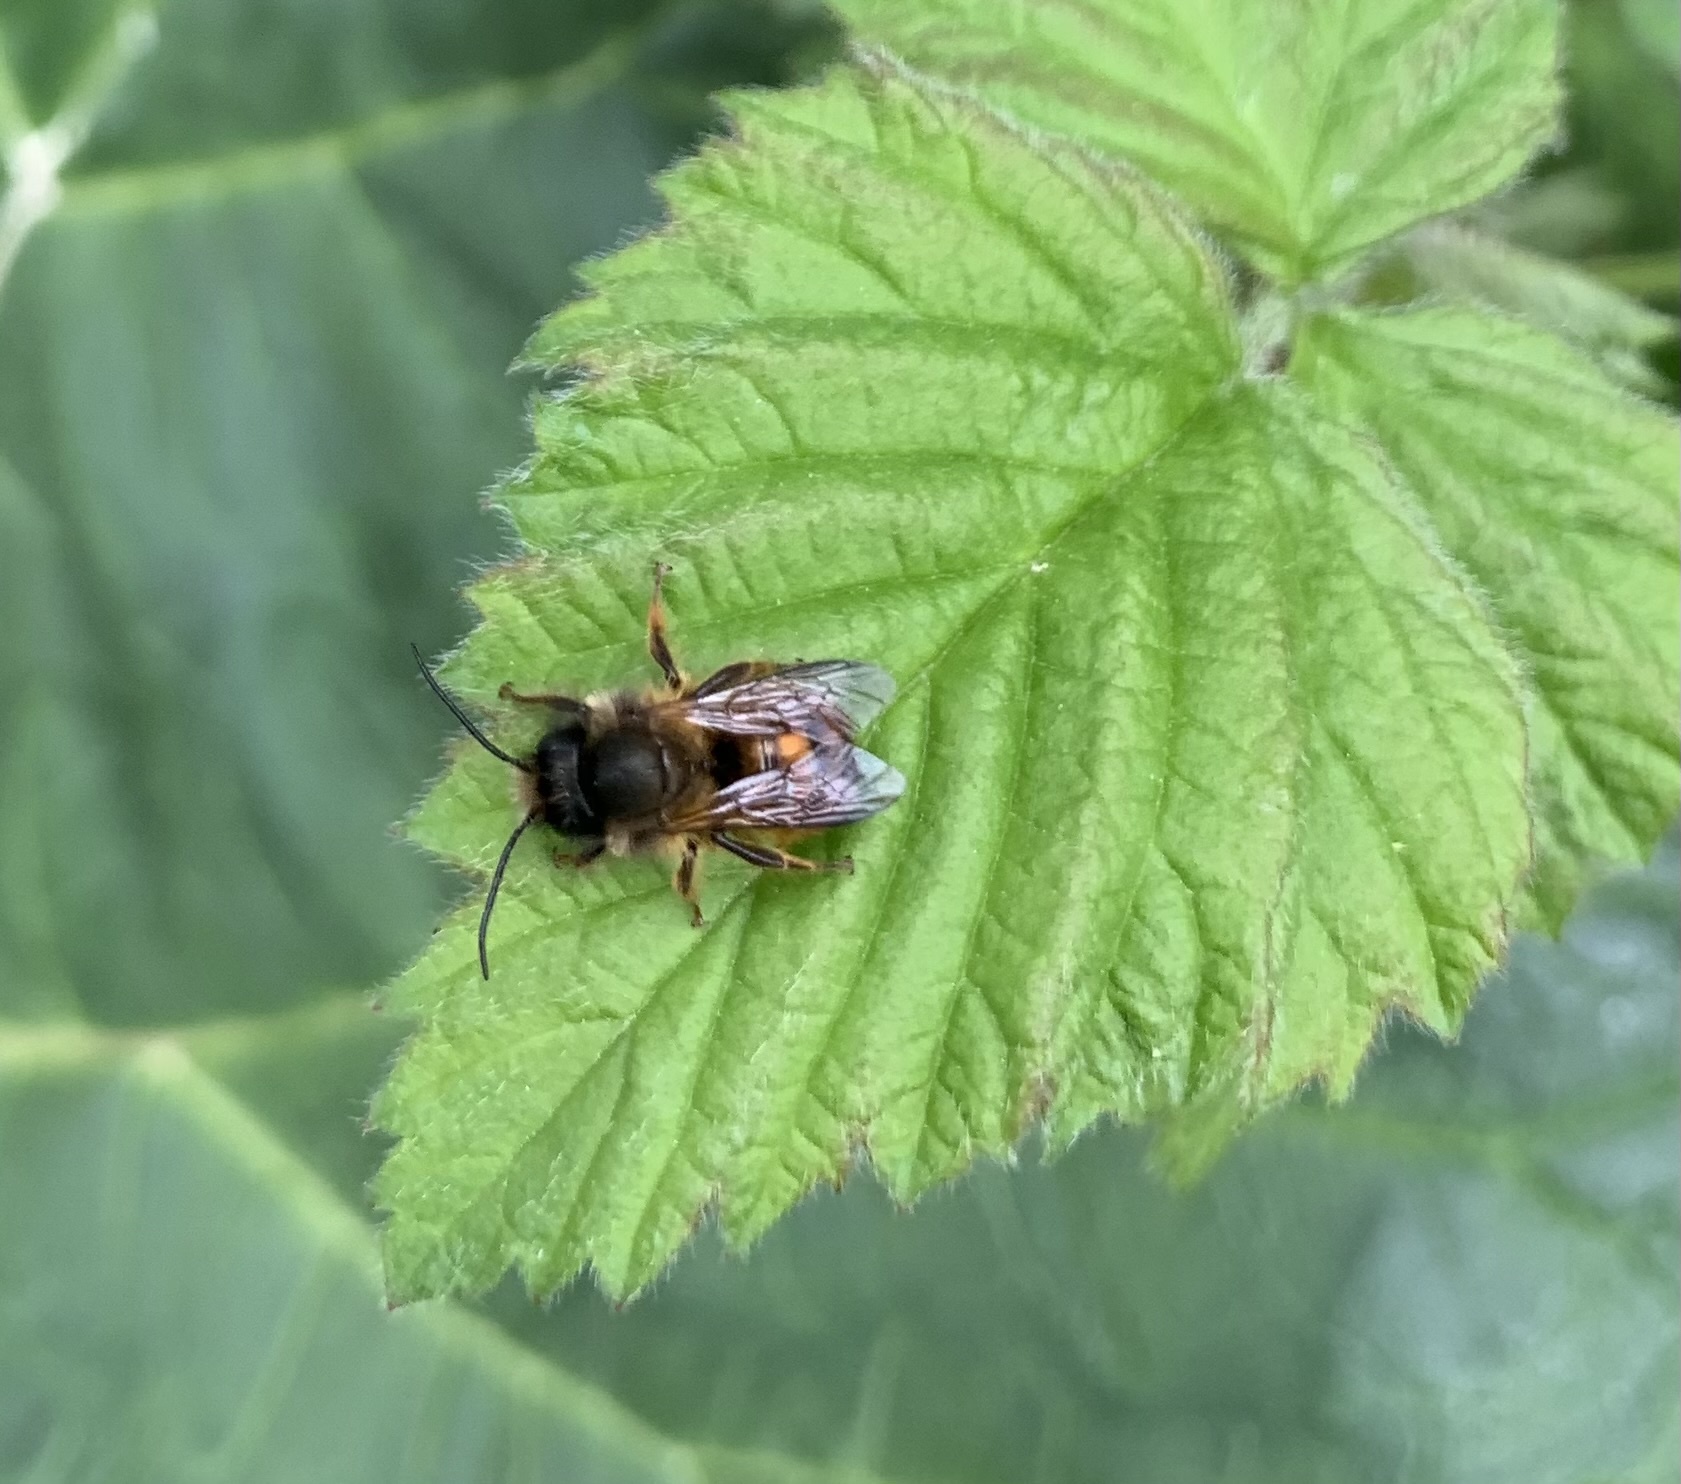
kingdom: Animalia
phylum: Arthropoda
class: Insecta
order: Hymenoptera
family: Megachilidae
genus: Osmia
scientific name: Osmia bicornis
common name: Red mason bee
